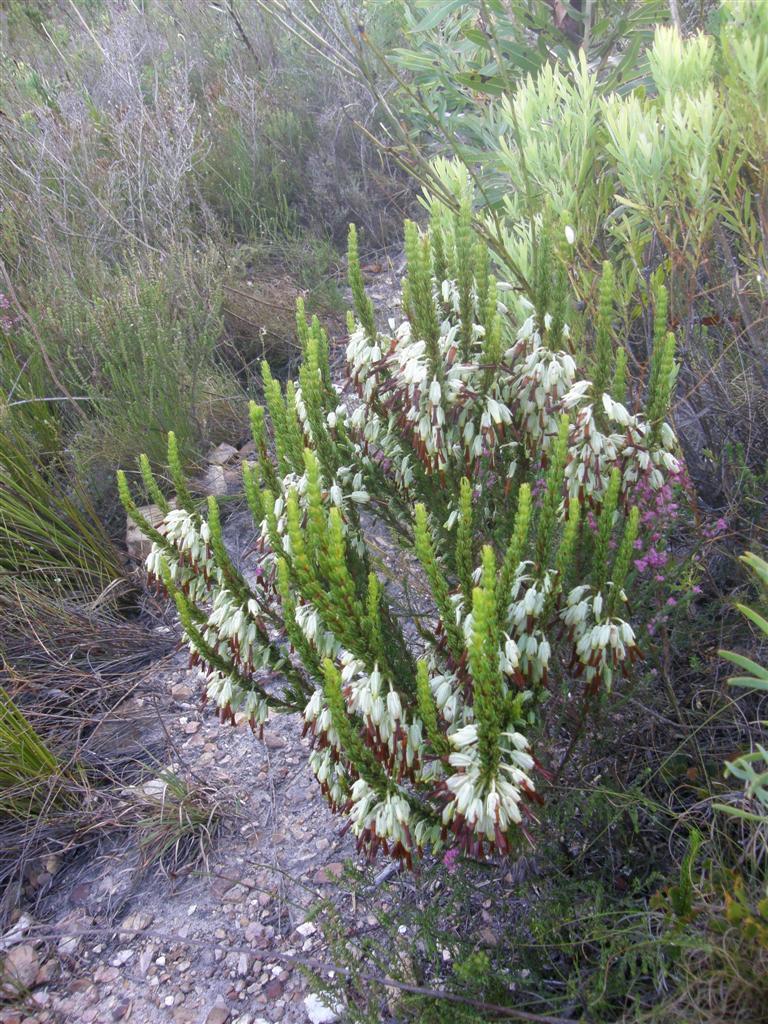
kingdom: Plantae
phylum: Tracheophyta
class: Magnoliopsida
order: Ericales
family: Ericaceae
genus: Erica
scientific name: Erica plukenetii
